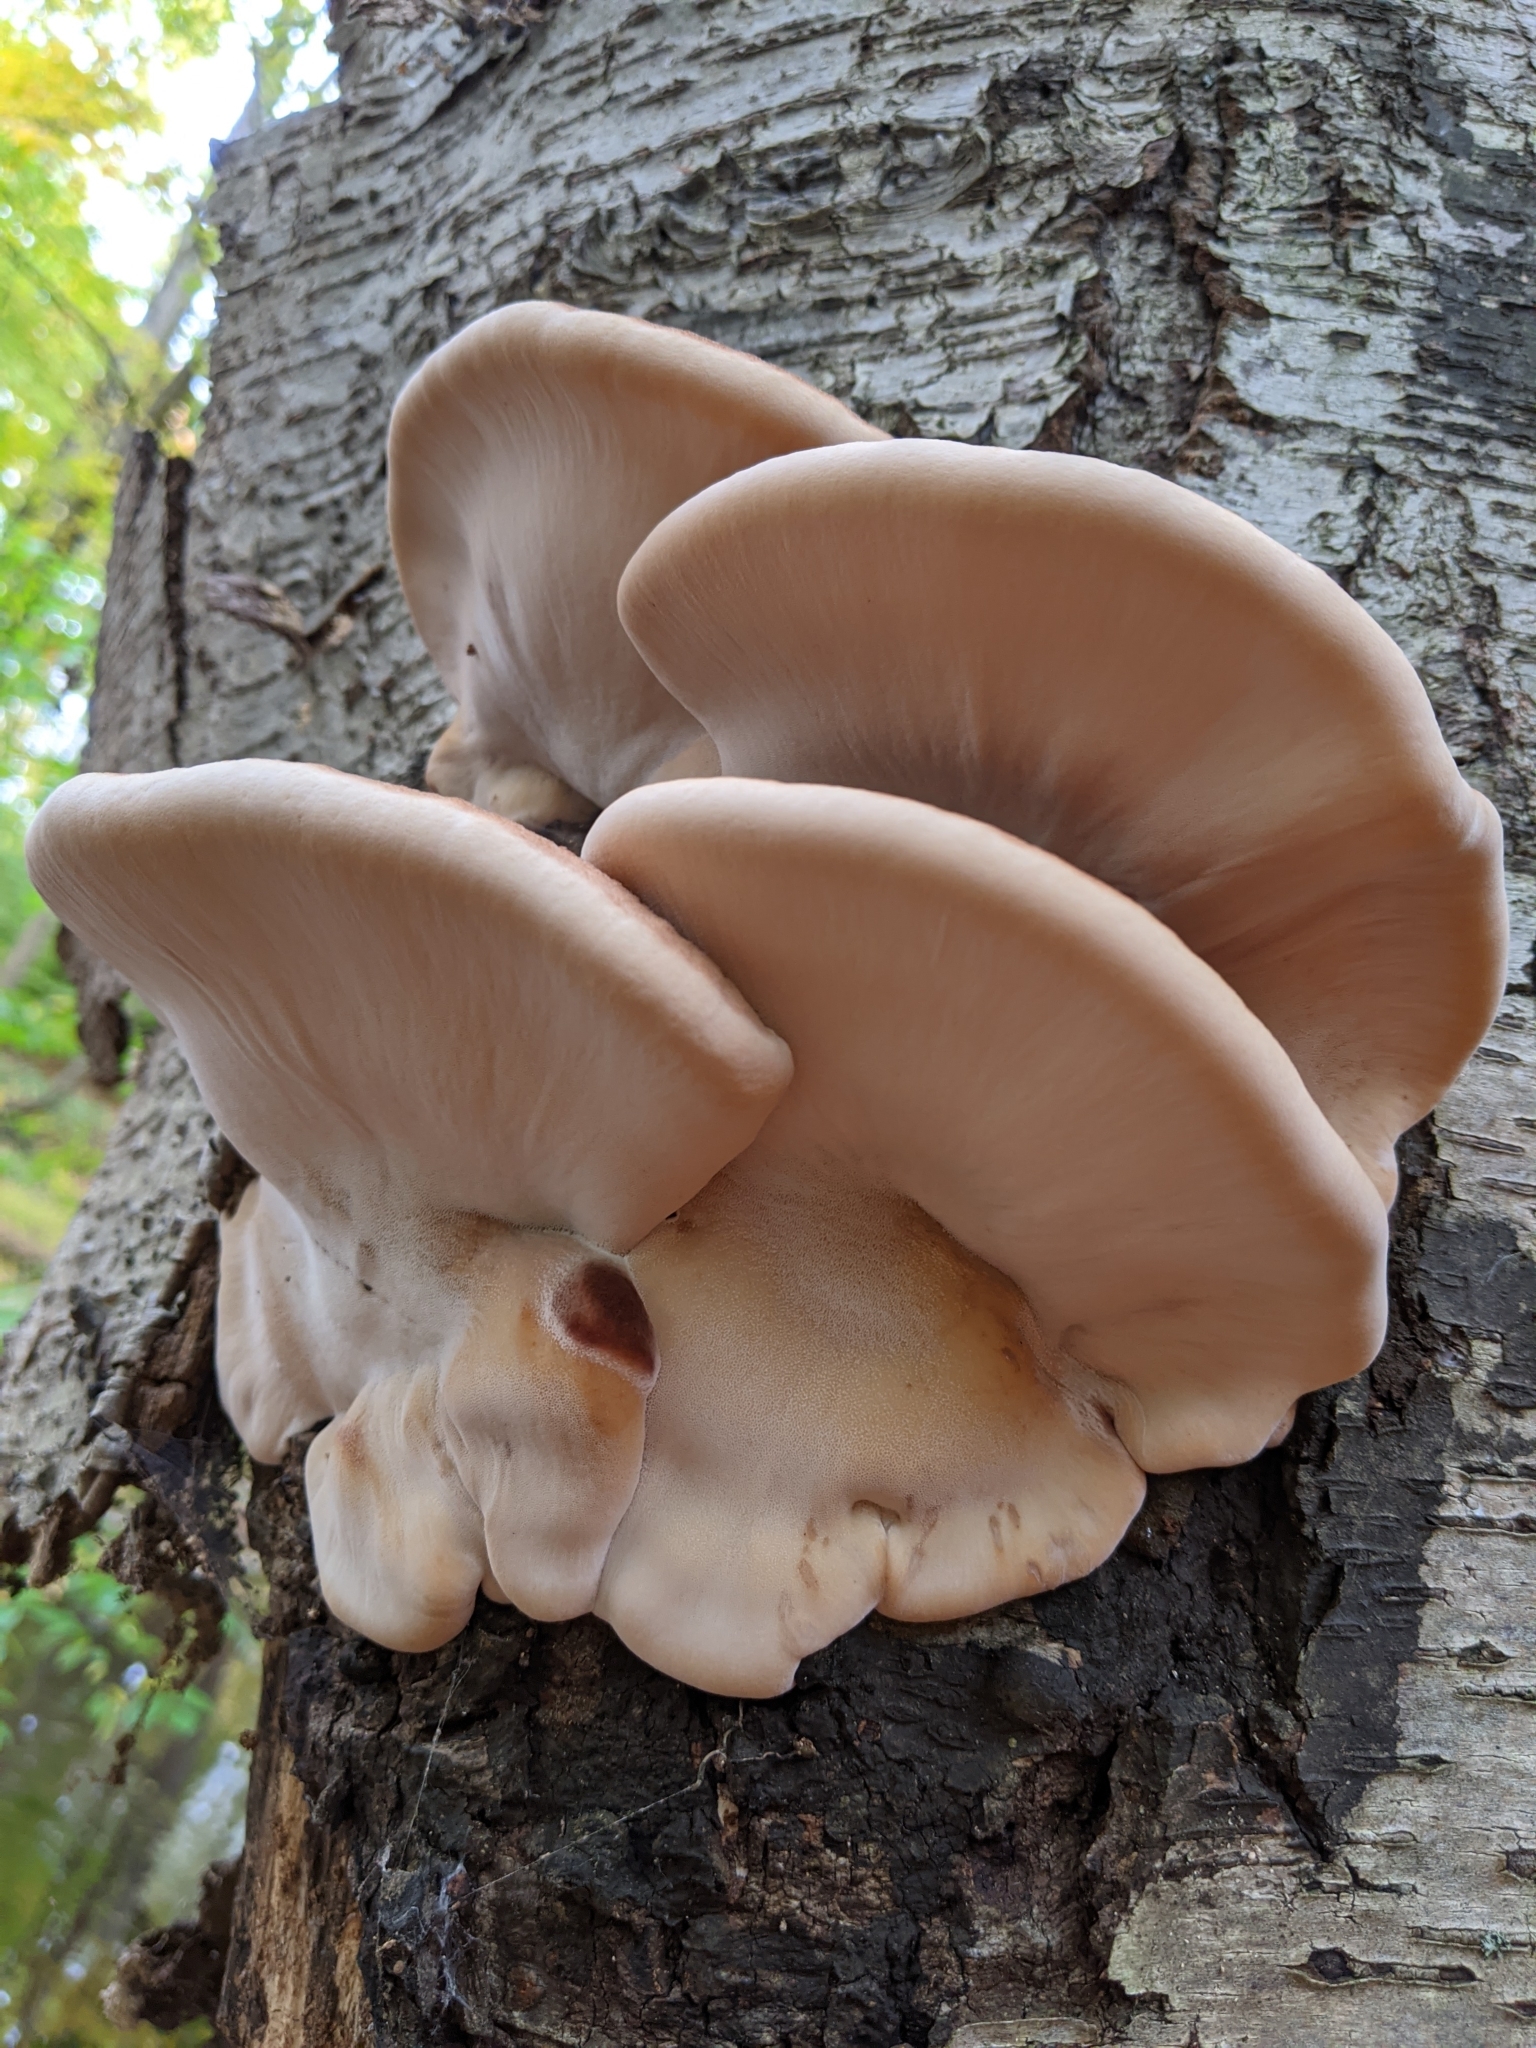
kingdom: Fungi
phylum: Basidiomycota
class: Agaricomycetes
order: Polyporales
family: Ischnodermataceae
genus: Ischnoderma
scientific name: Ischnoderma resinosum
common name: Resinous polypore
